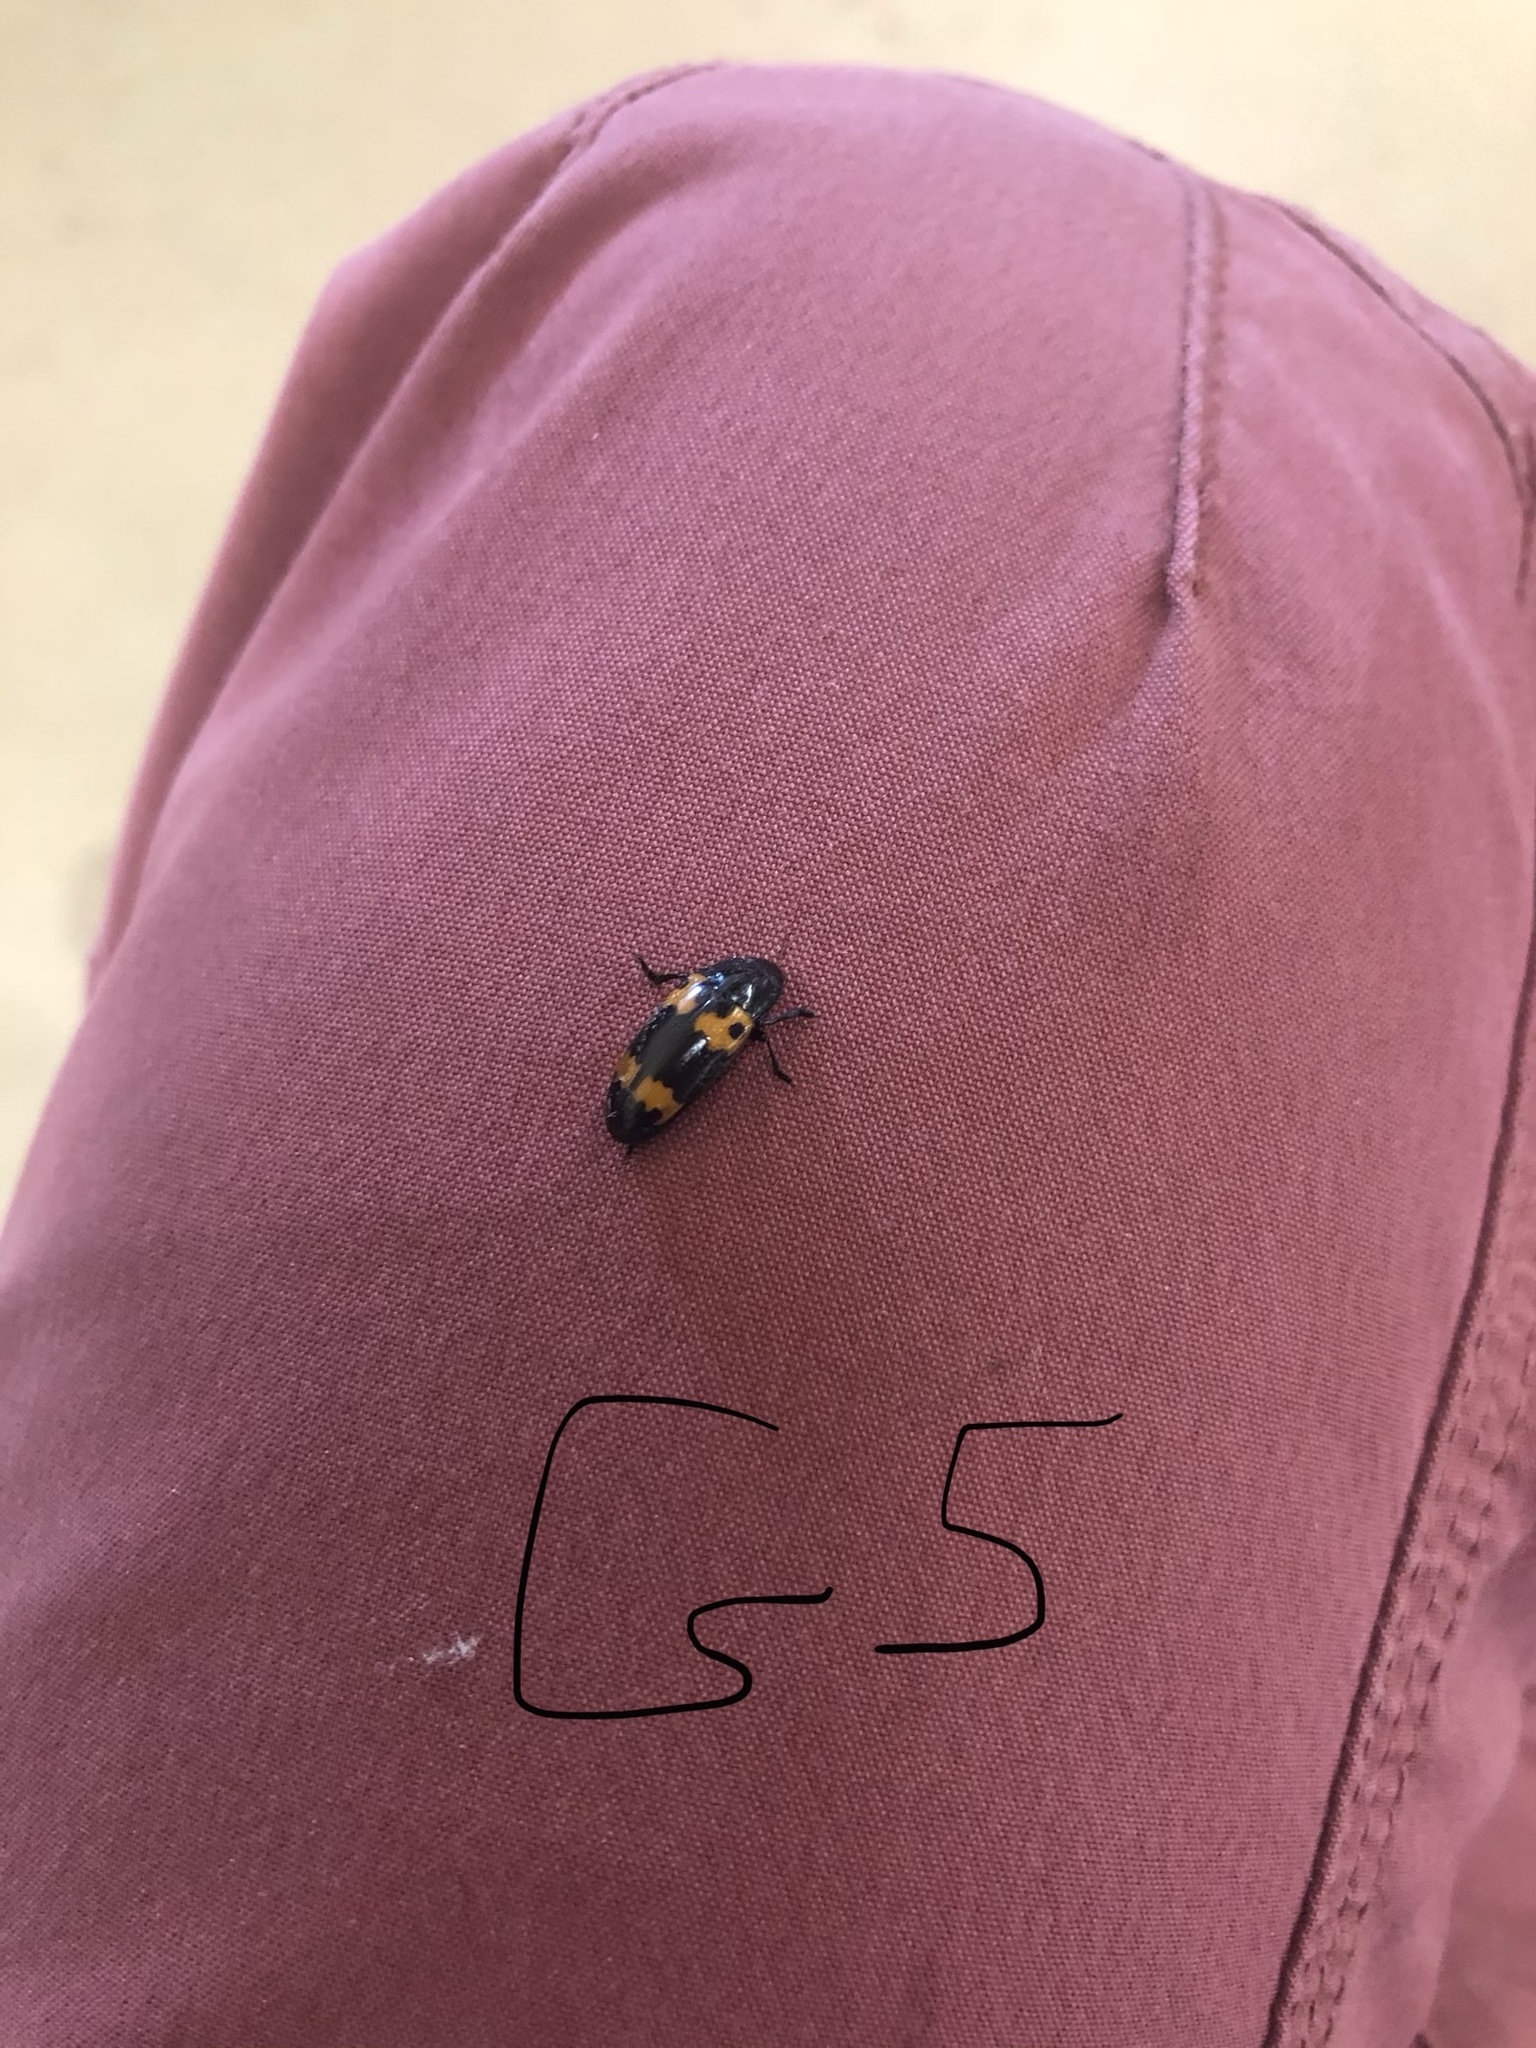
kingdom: Animalia
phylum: Arthropoda
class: Insecta
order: Coleoptera
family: Erotylidae
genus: Megalodacne
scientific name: Megalodacne fasciata
